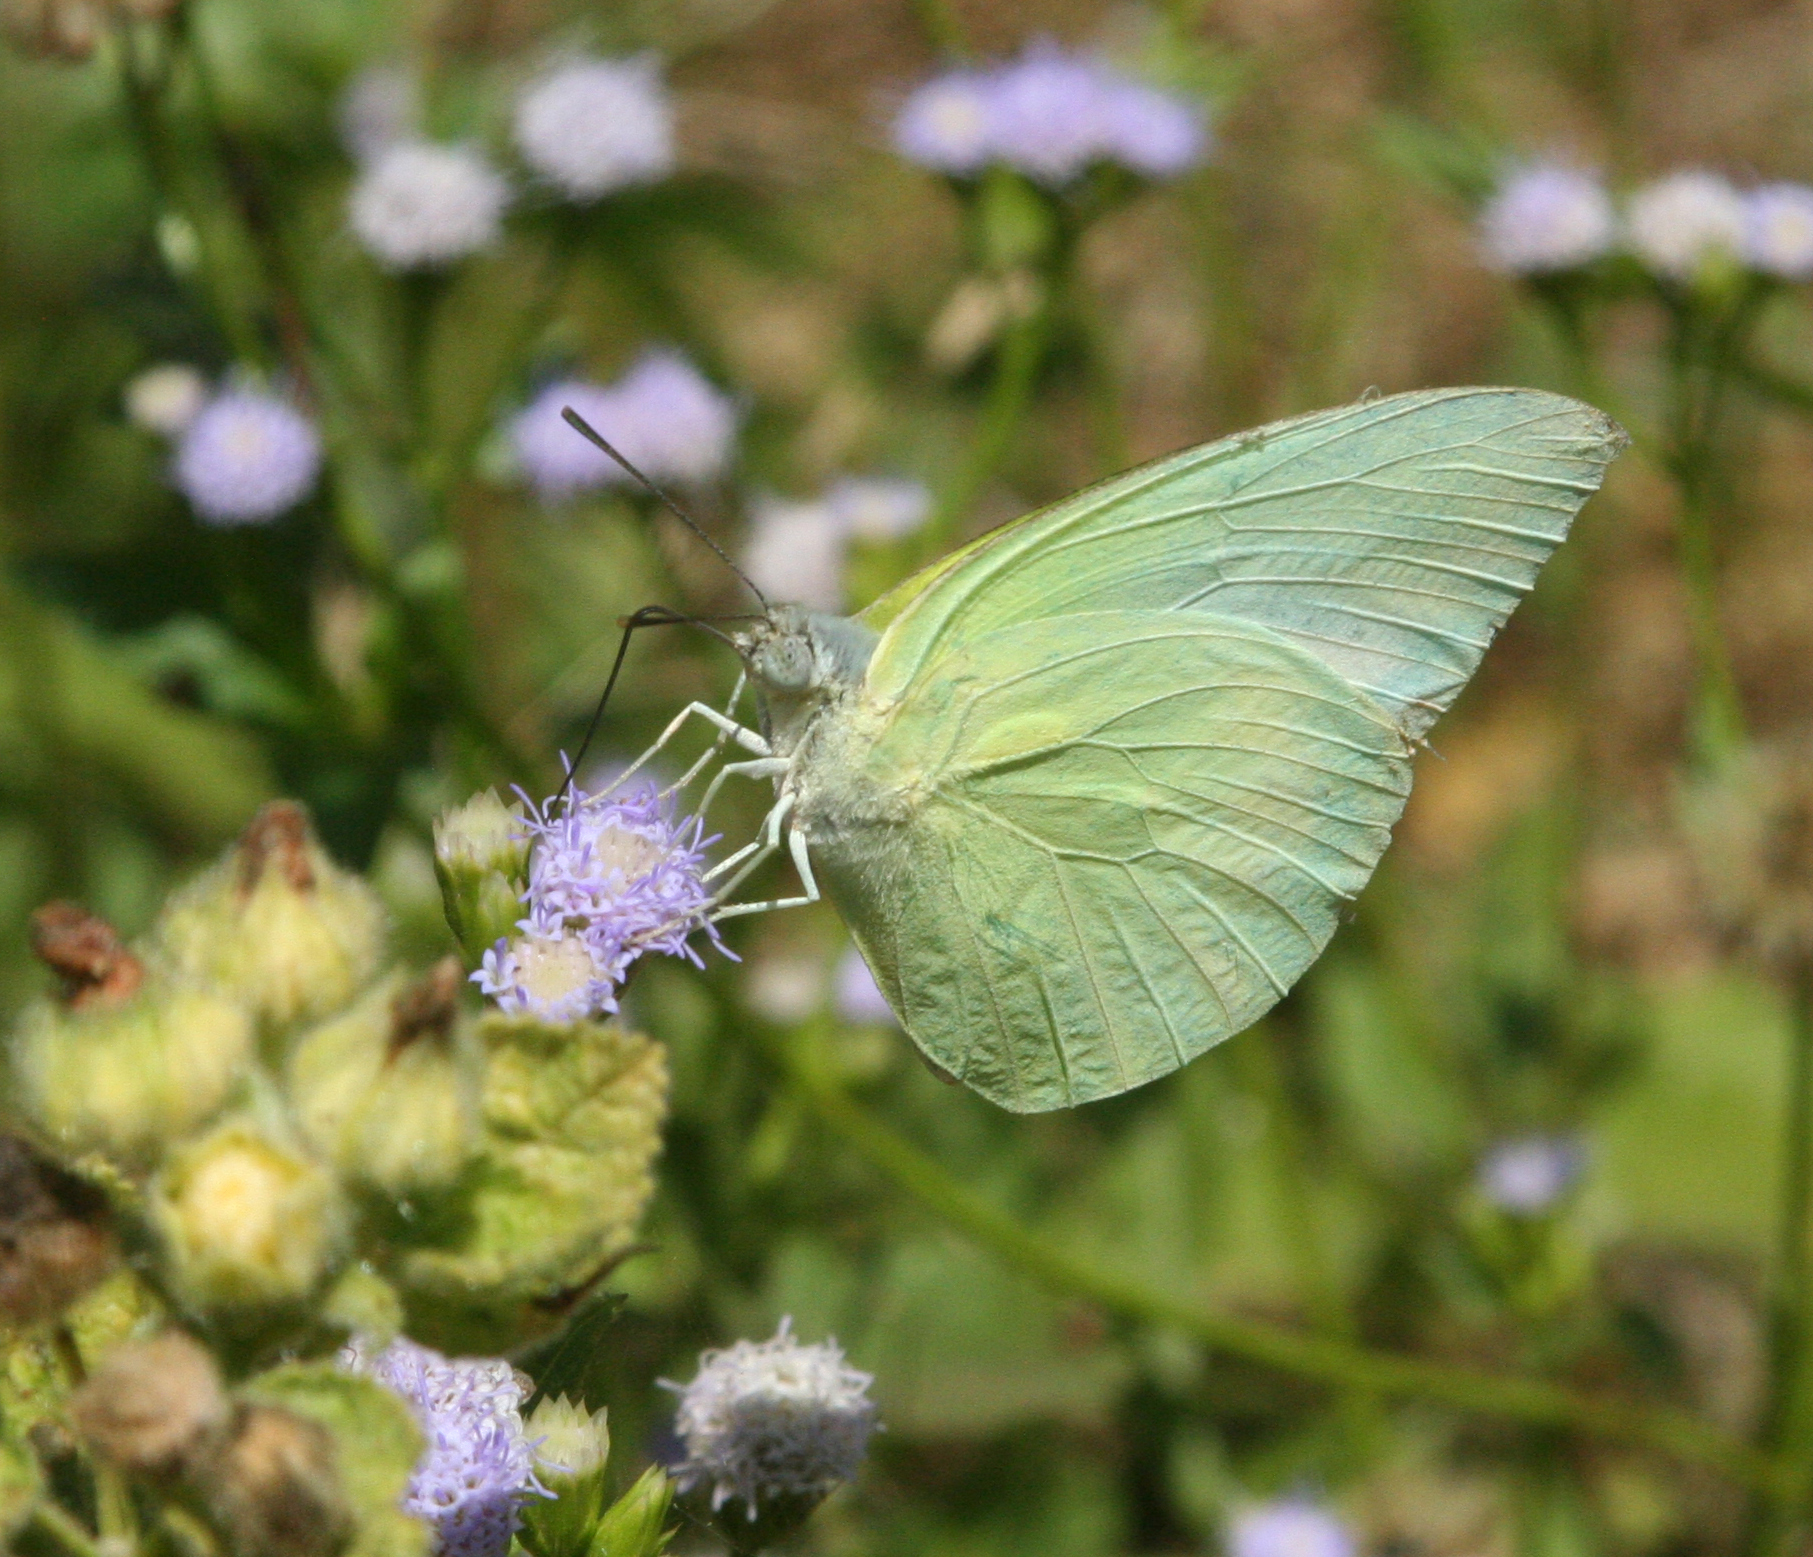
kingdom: Animalia
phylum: Arthropoda
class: Insecta
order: Lepidoptera
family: Pieridae
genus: Catopsilia
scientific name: Catopsilia pomona
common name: Common emigrant
